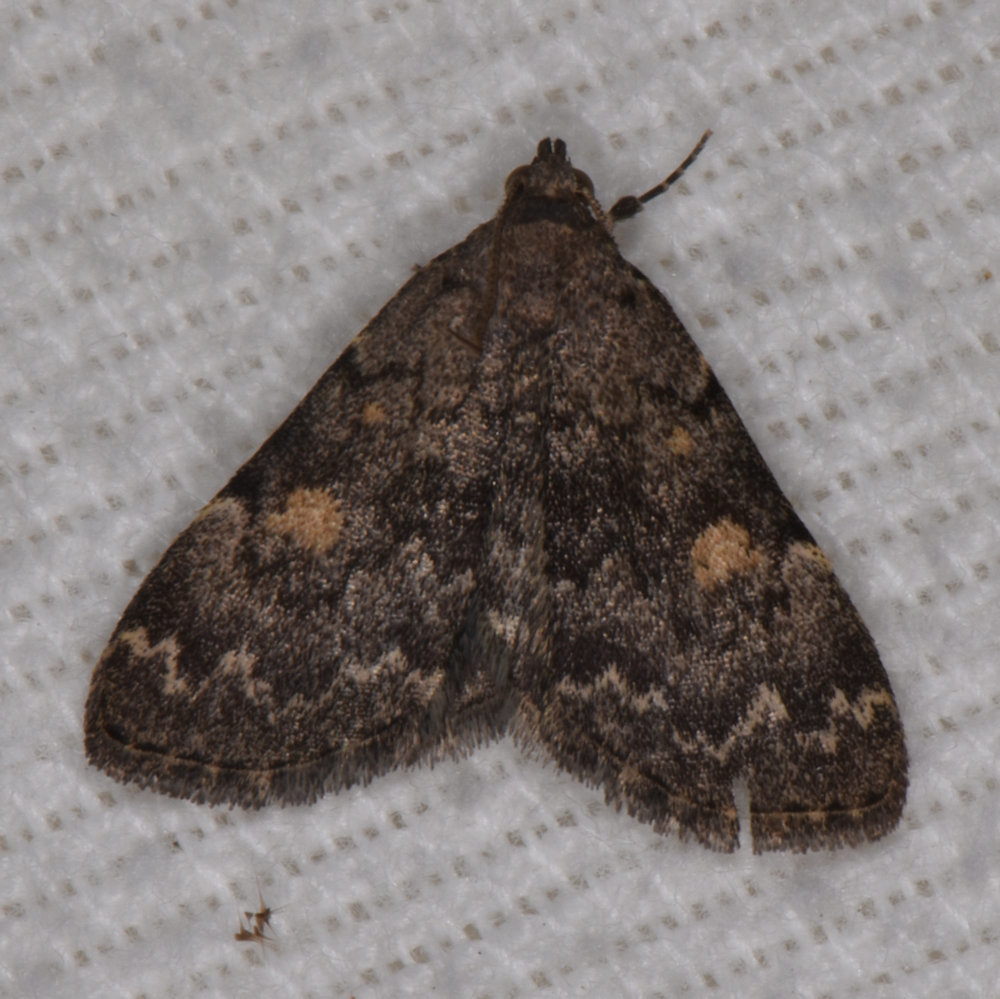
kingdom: Animalia
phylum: Arthropoda
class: Insecta
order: Lepidoptera
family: Erebidae
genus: Idia
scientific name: Idia aemula
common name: Common idia moth
